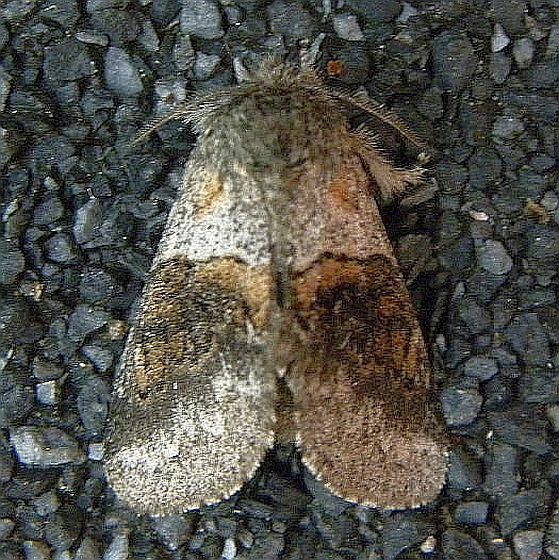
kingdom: Animalia
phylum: Arthropoda
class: Insecta
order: Lepidoptera
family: Notodontidae
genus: Gluphisia
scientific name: Gluphisia septentrionis
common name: Common gluphisia
